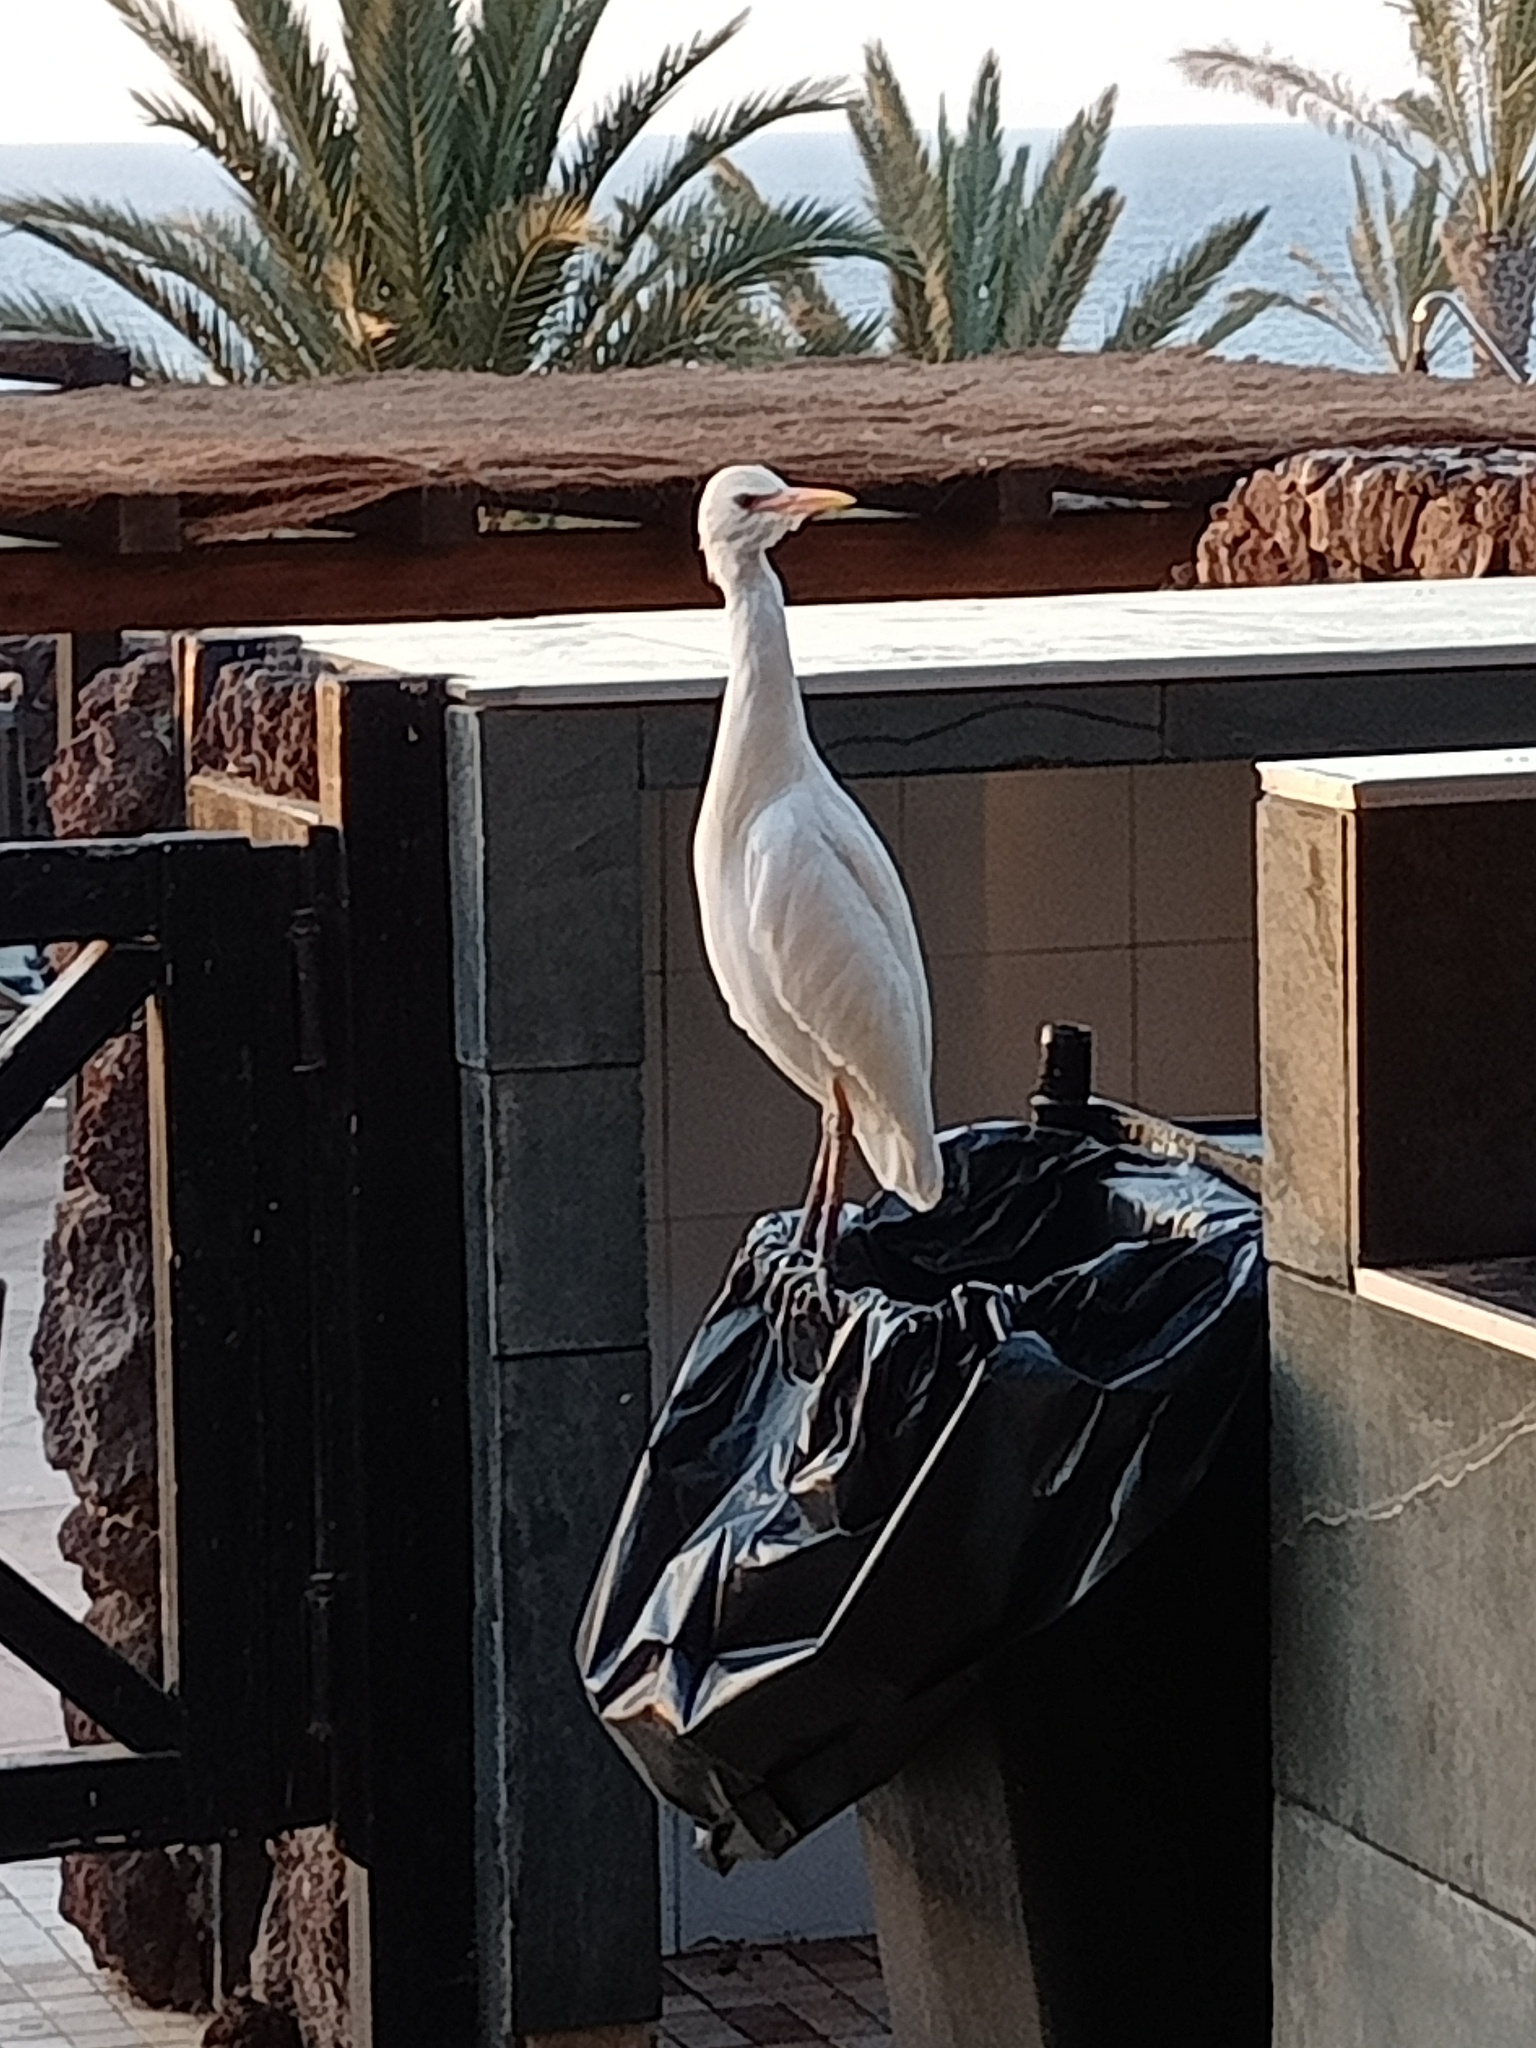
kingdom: Animalia
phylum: Chordata
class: Aves
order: Pelecaniformes
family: Ardeidae
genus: Bubulcus
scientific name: Bubulcus ibis
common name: Cattle egret
